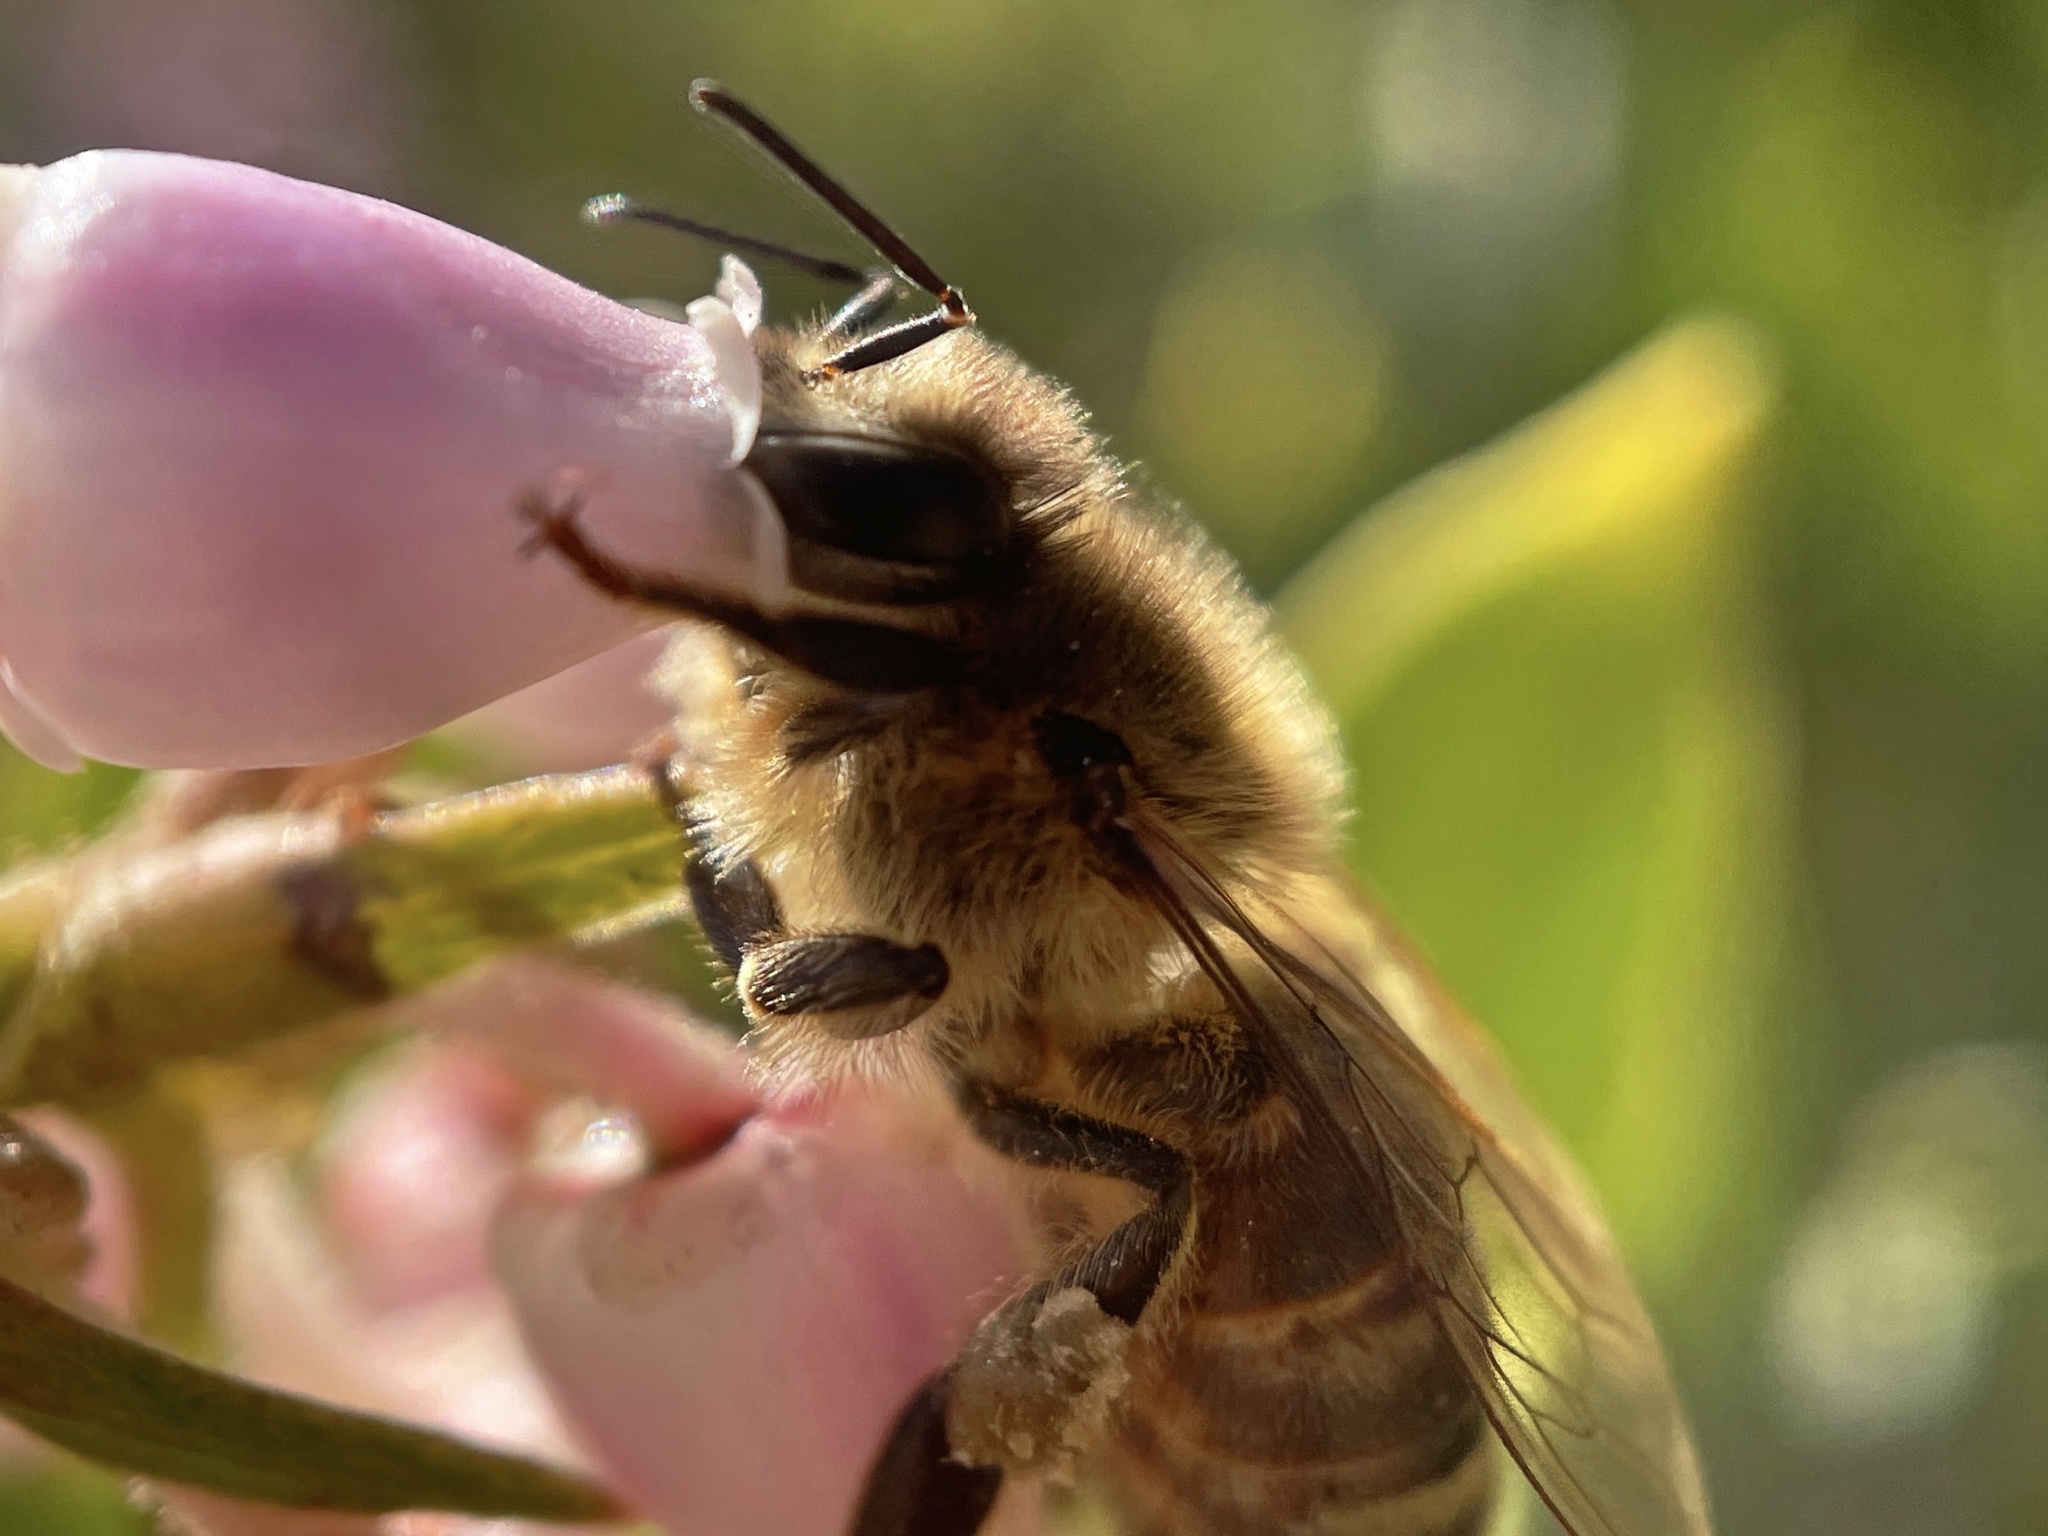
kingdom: Animalia
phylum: Arthropoda
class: Insecta
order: Hymenoptera
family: Apidae
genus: Apis
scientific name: Apis mellifera
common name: Honey bee
